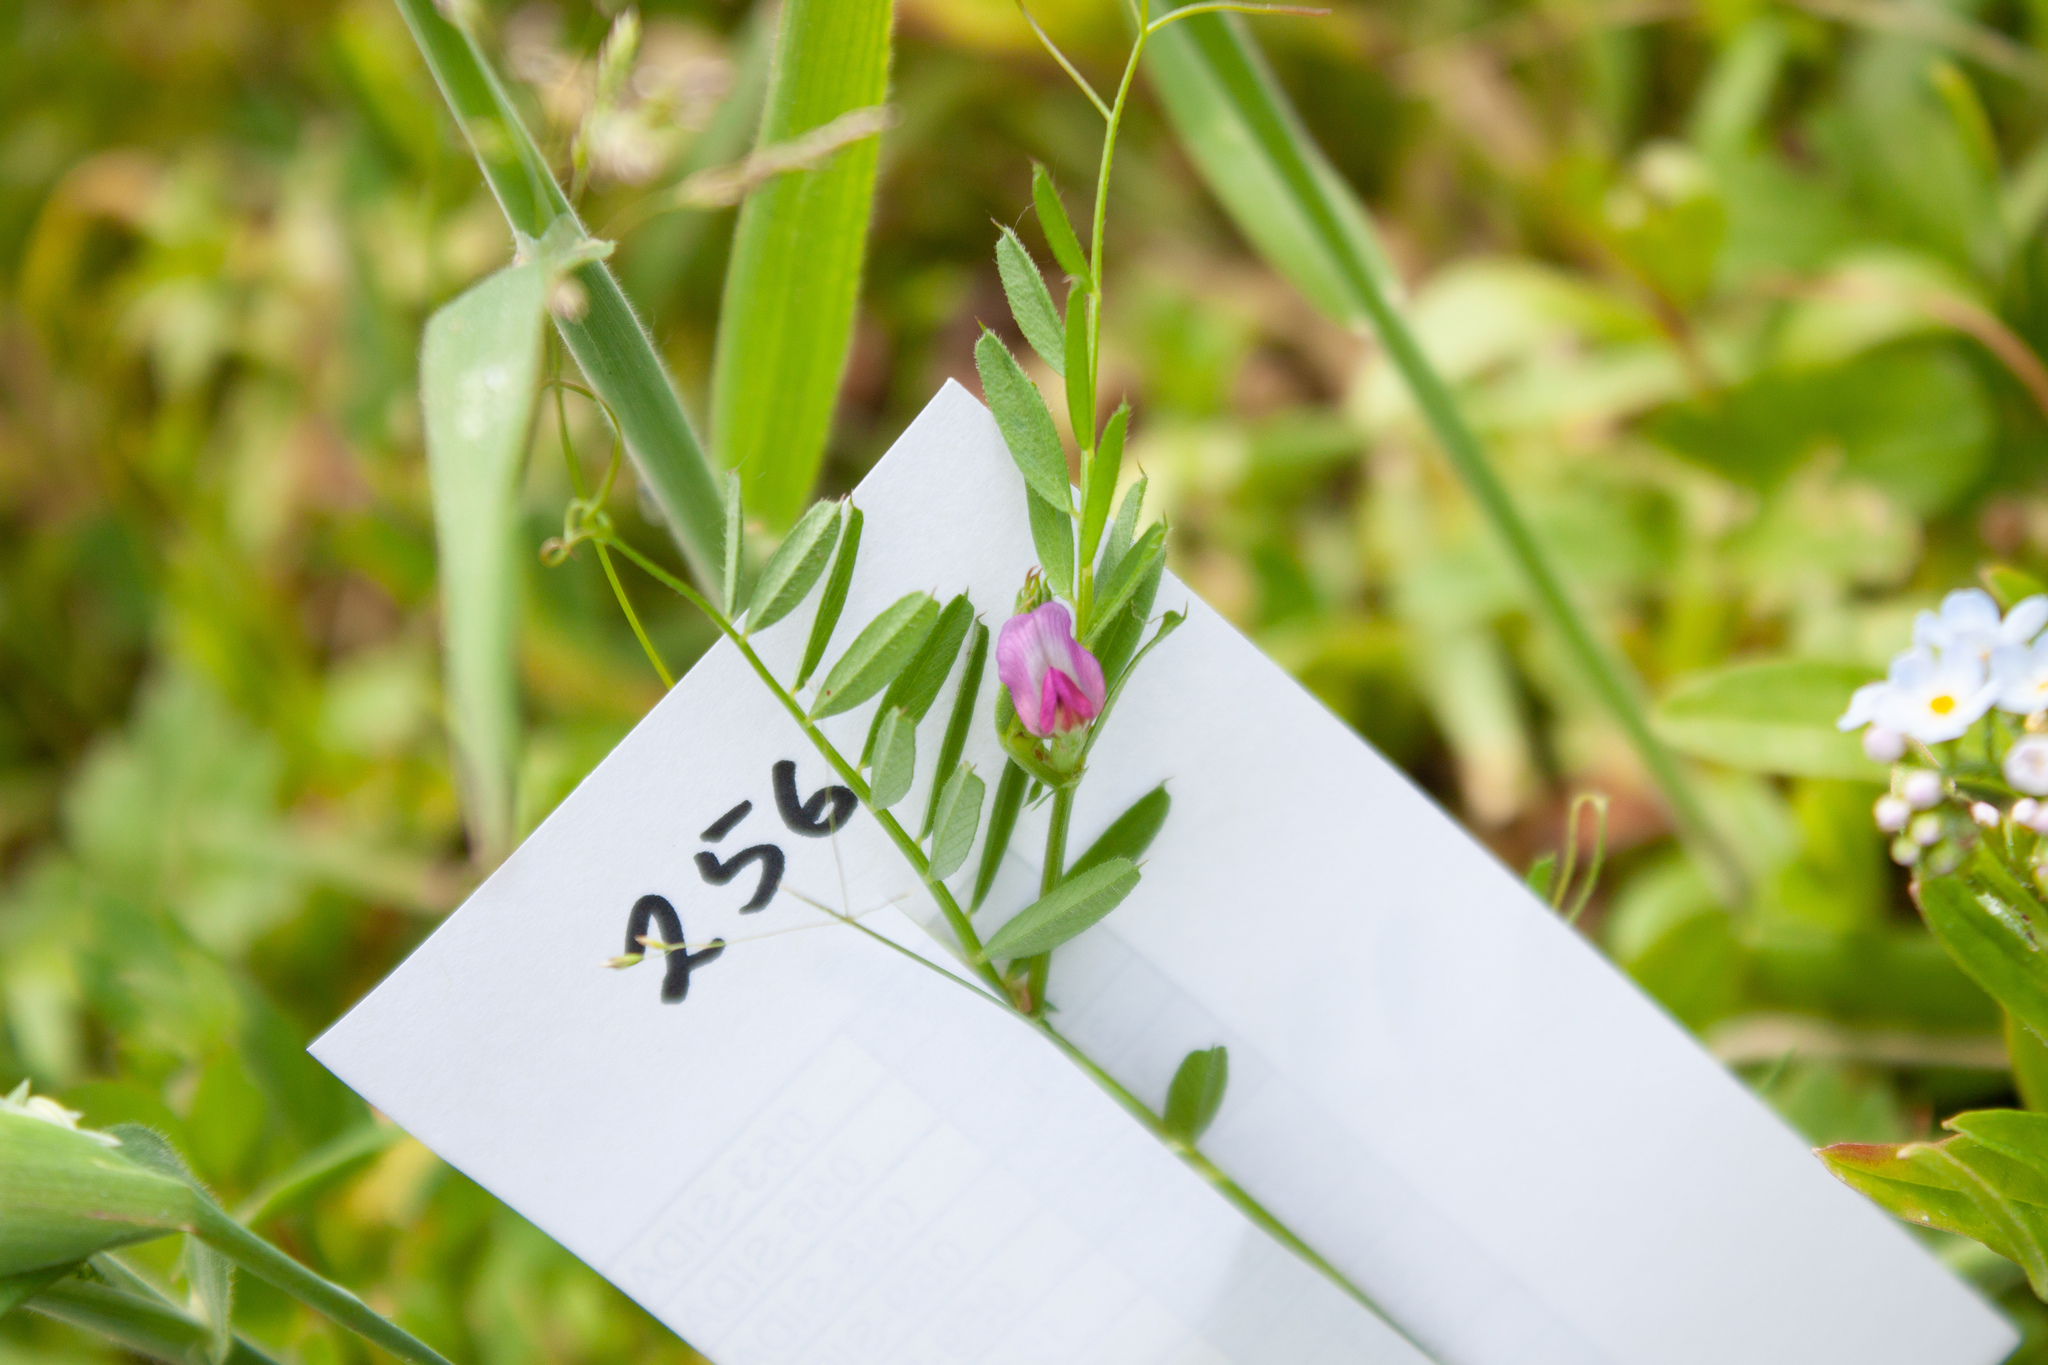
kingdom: Plantae
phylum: Tracheophyta
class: Magnoliopsida
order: Fabales
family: Fabaceae
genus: Vicia
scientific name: Vicia sativa
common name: Garden vetch
